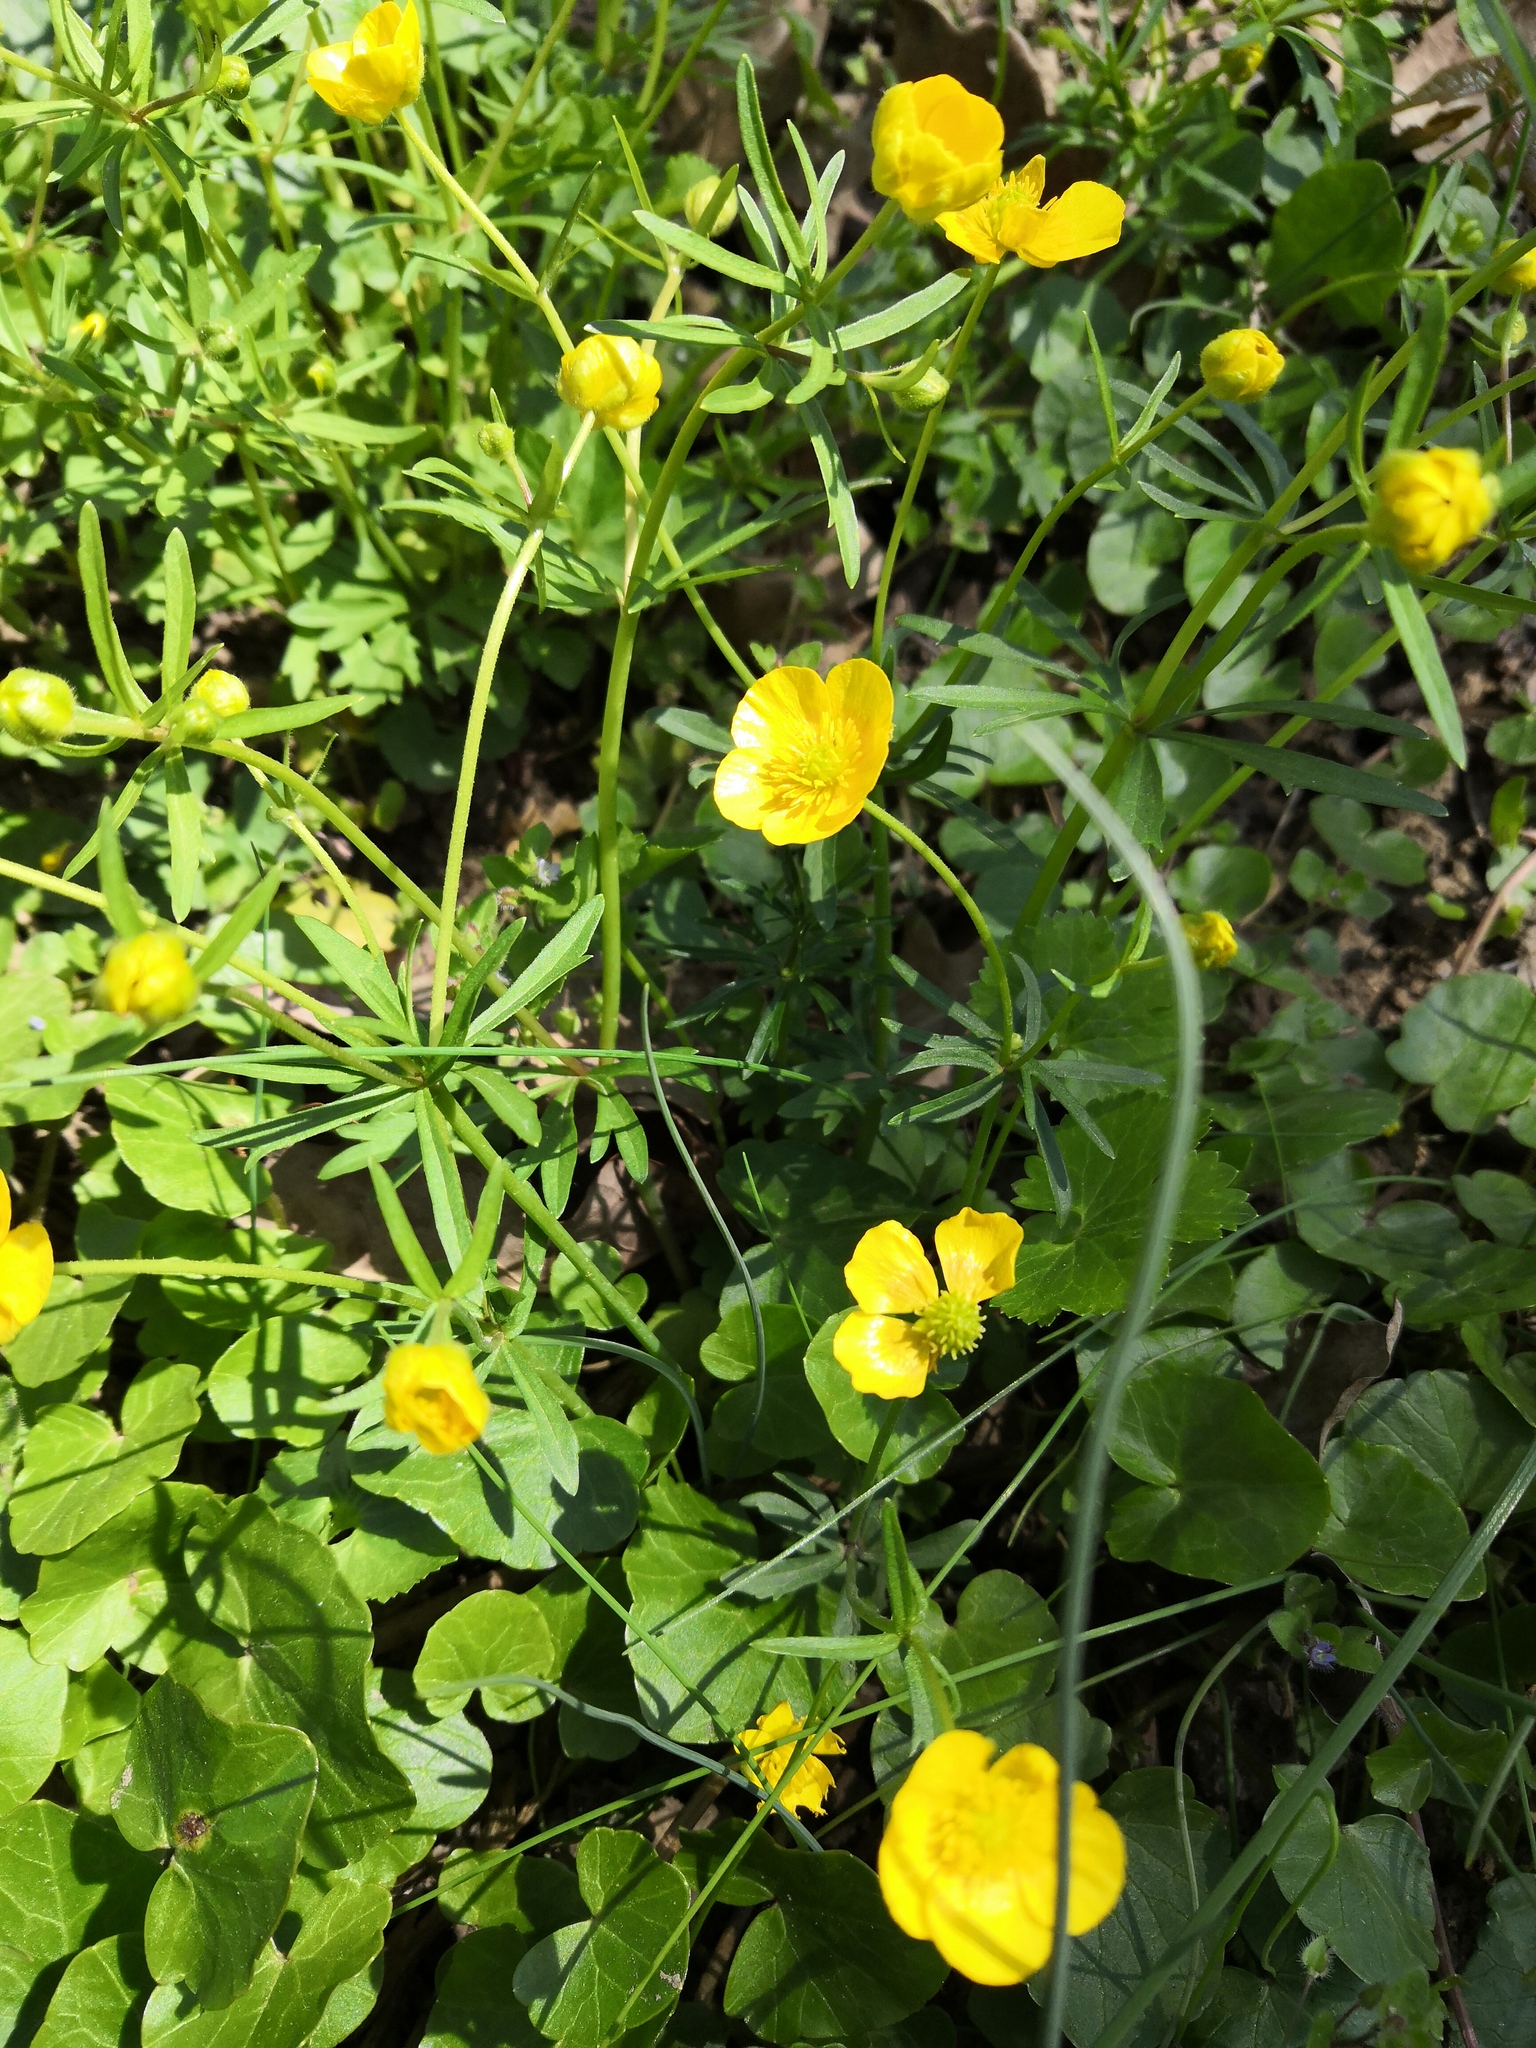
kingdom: Plantae
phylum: Tracheophyta
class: Magnoliopsida
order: Ranunculales
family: Ranunculaceae
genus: Ranunculus
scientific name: Ranunculus auricomus
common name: Goldilocks buttercup
